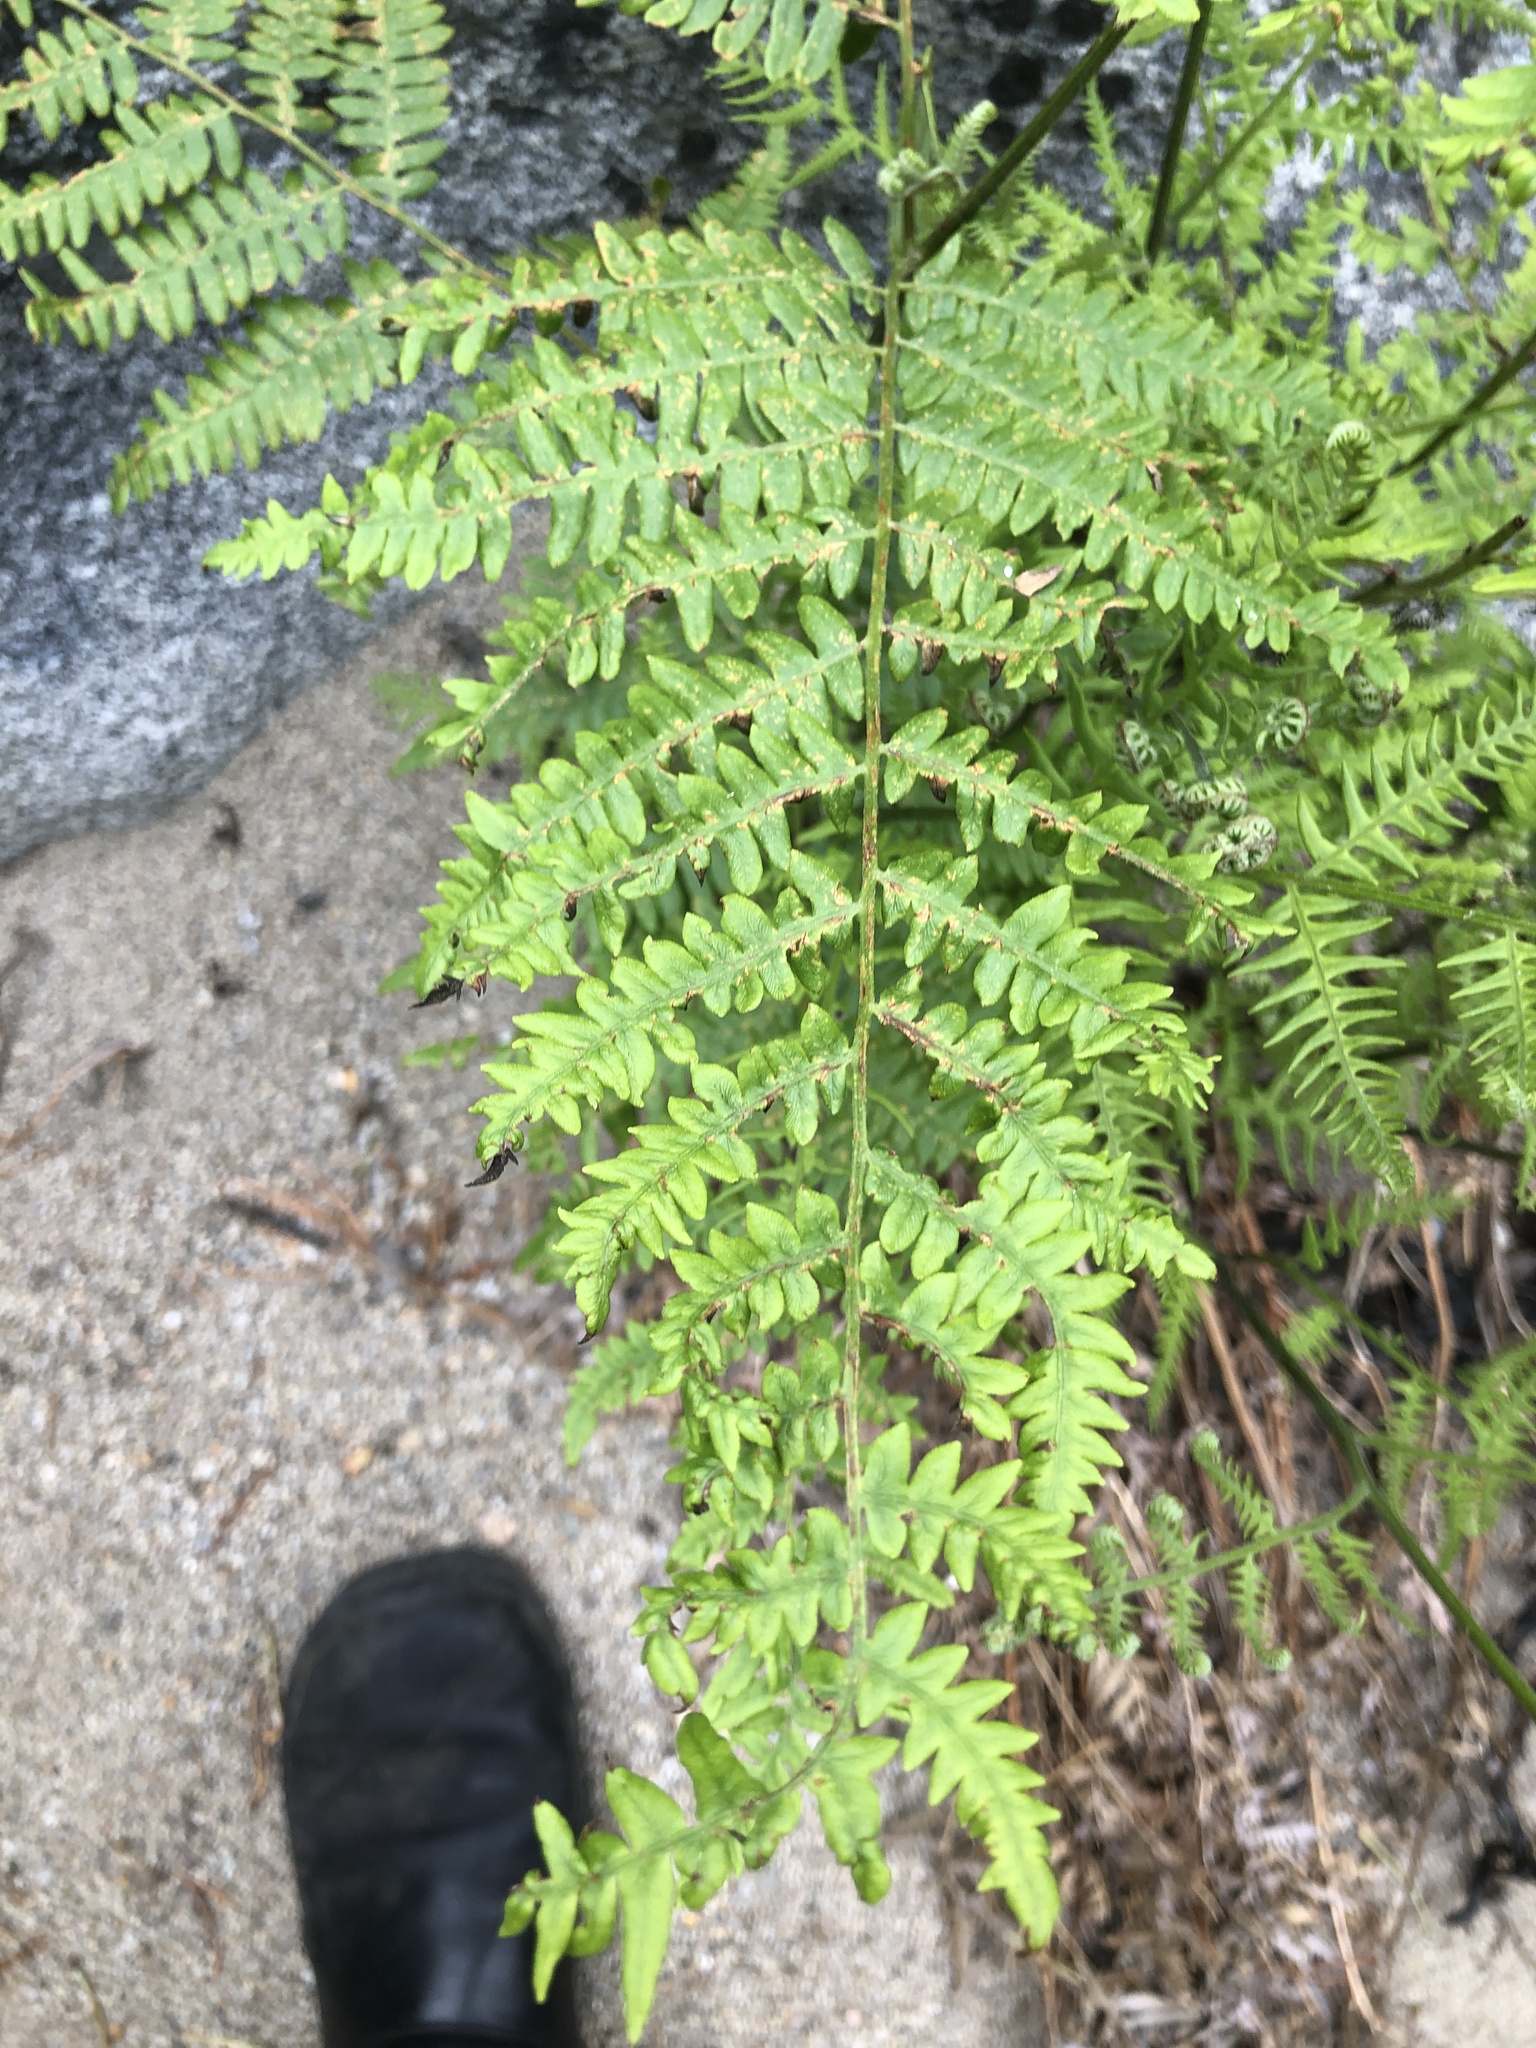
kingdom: Plantae
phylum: Tracheophyta
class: Polypodiopsida
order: Polypodiales
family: Dennstaedtiaceae
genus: Pteridium
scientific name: Pteridium aquilinum
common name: Bracken
